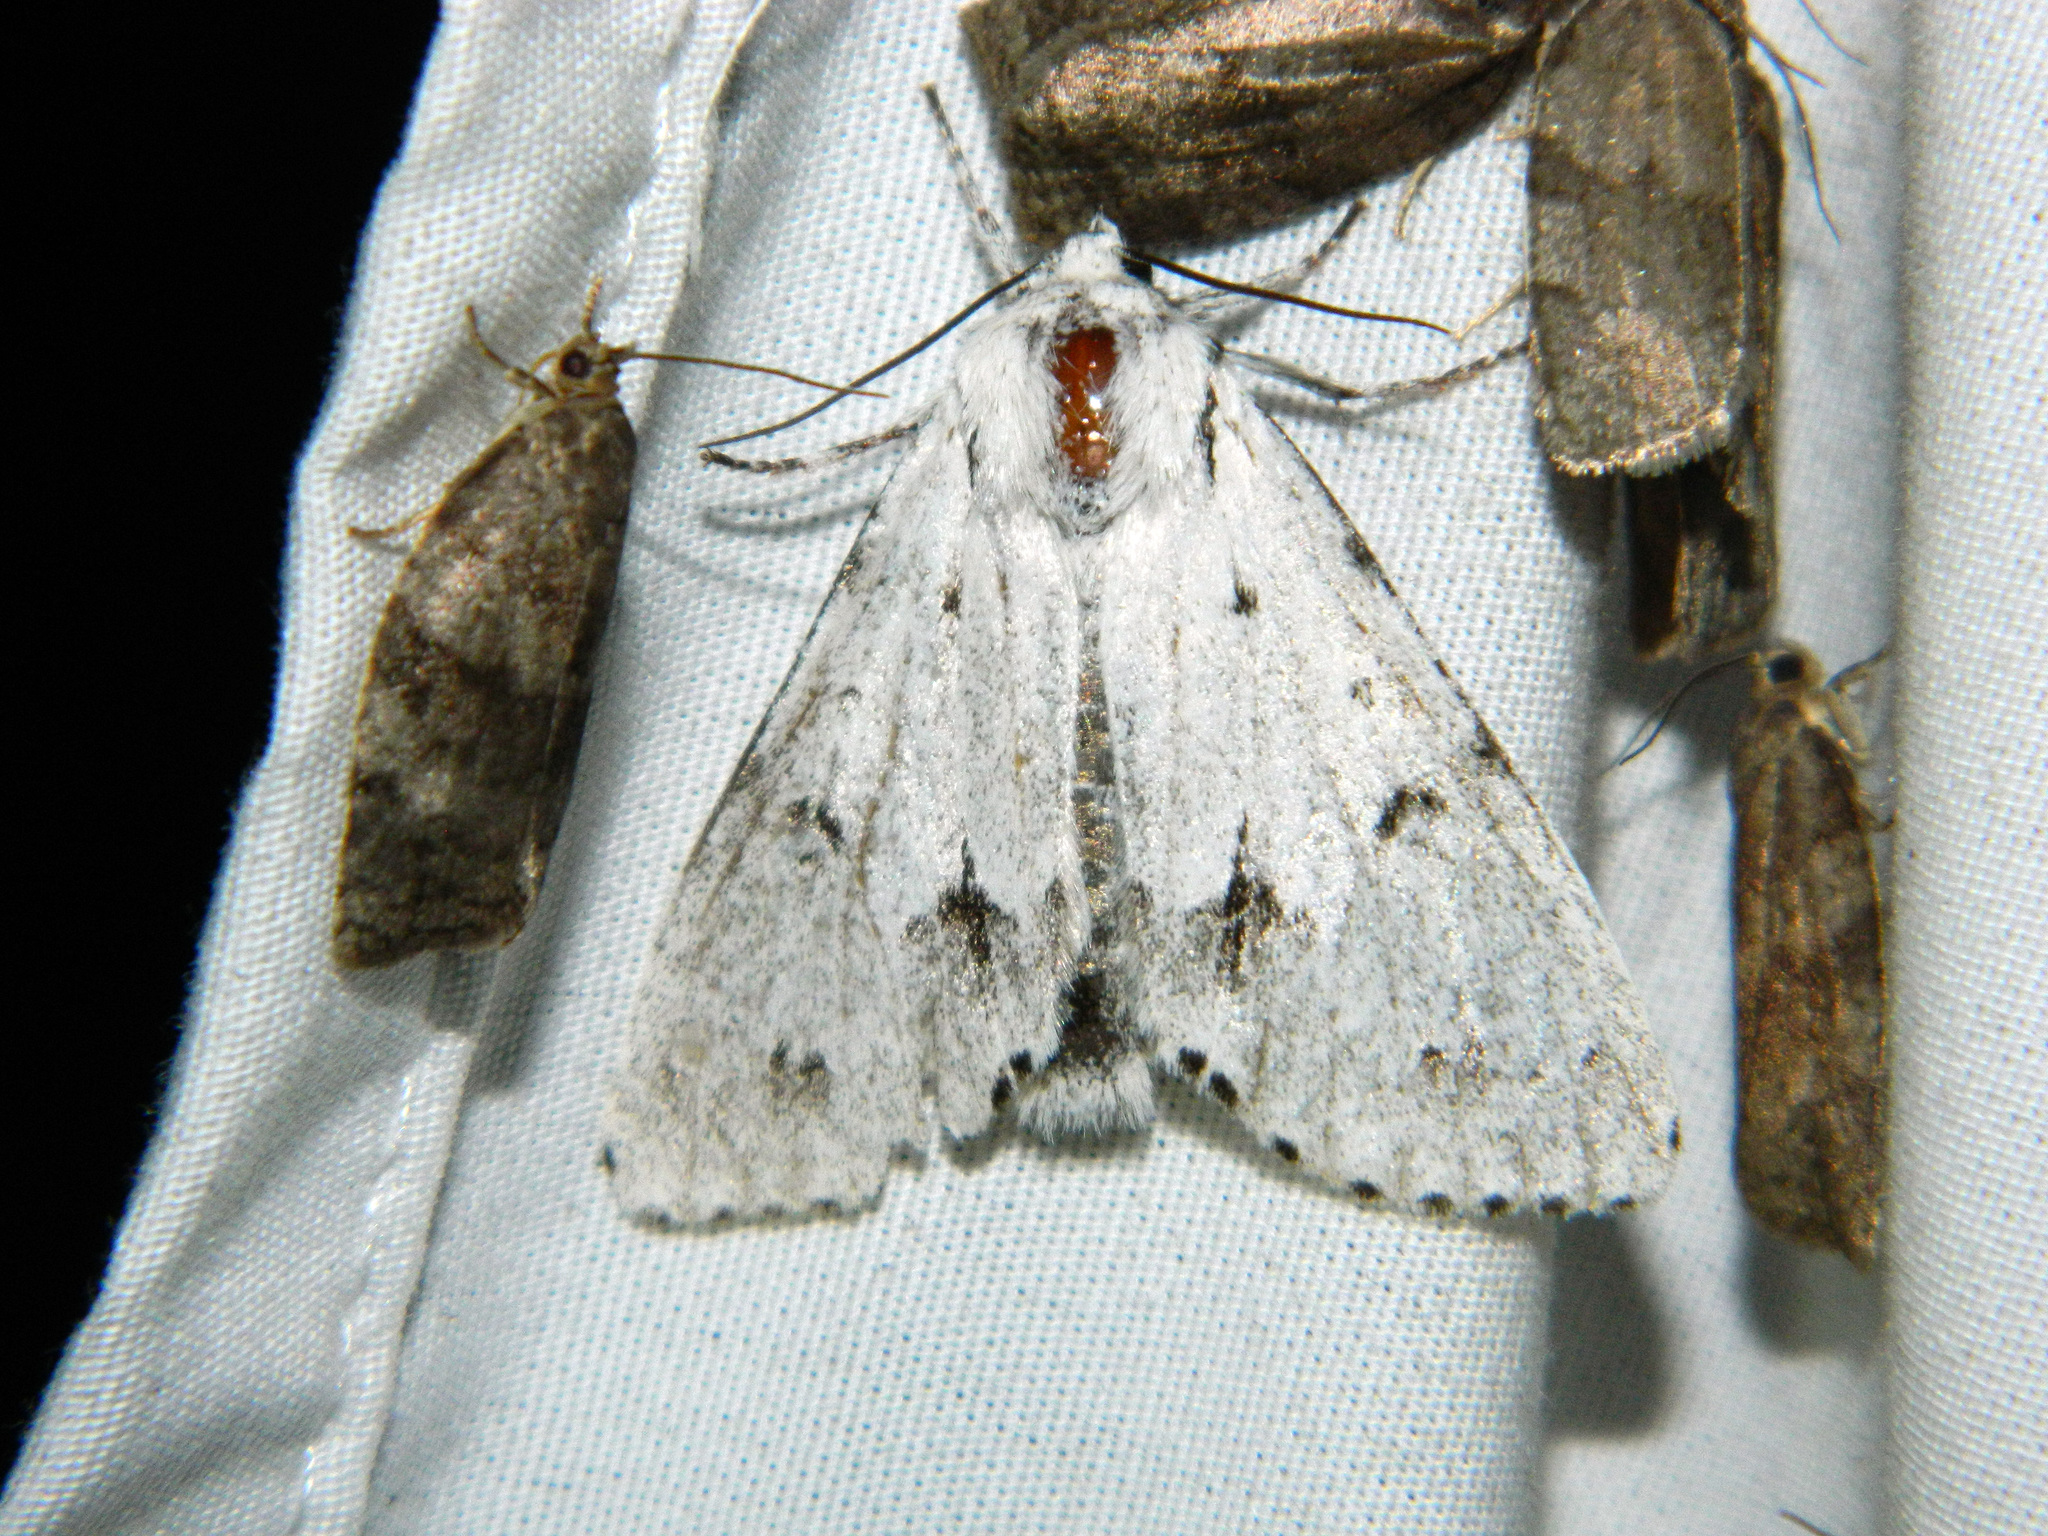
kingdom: Animalia
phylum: Arthropoda
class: Insecta
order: Lepidoptera
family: Noctuidae
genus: Acronicta
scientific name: Acronicta vulpina
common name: Miller dagger
